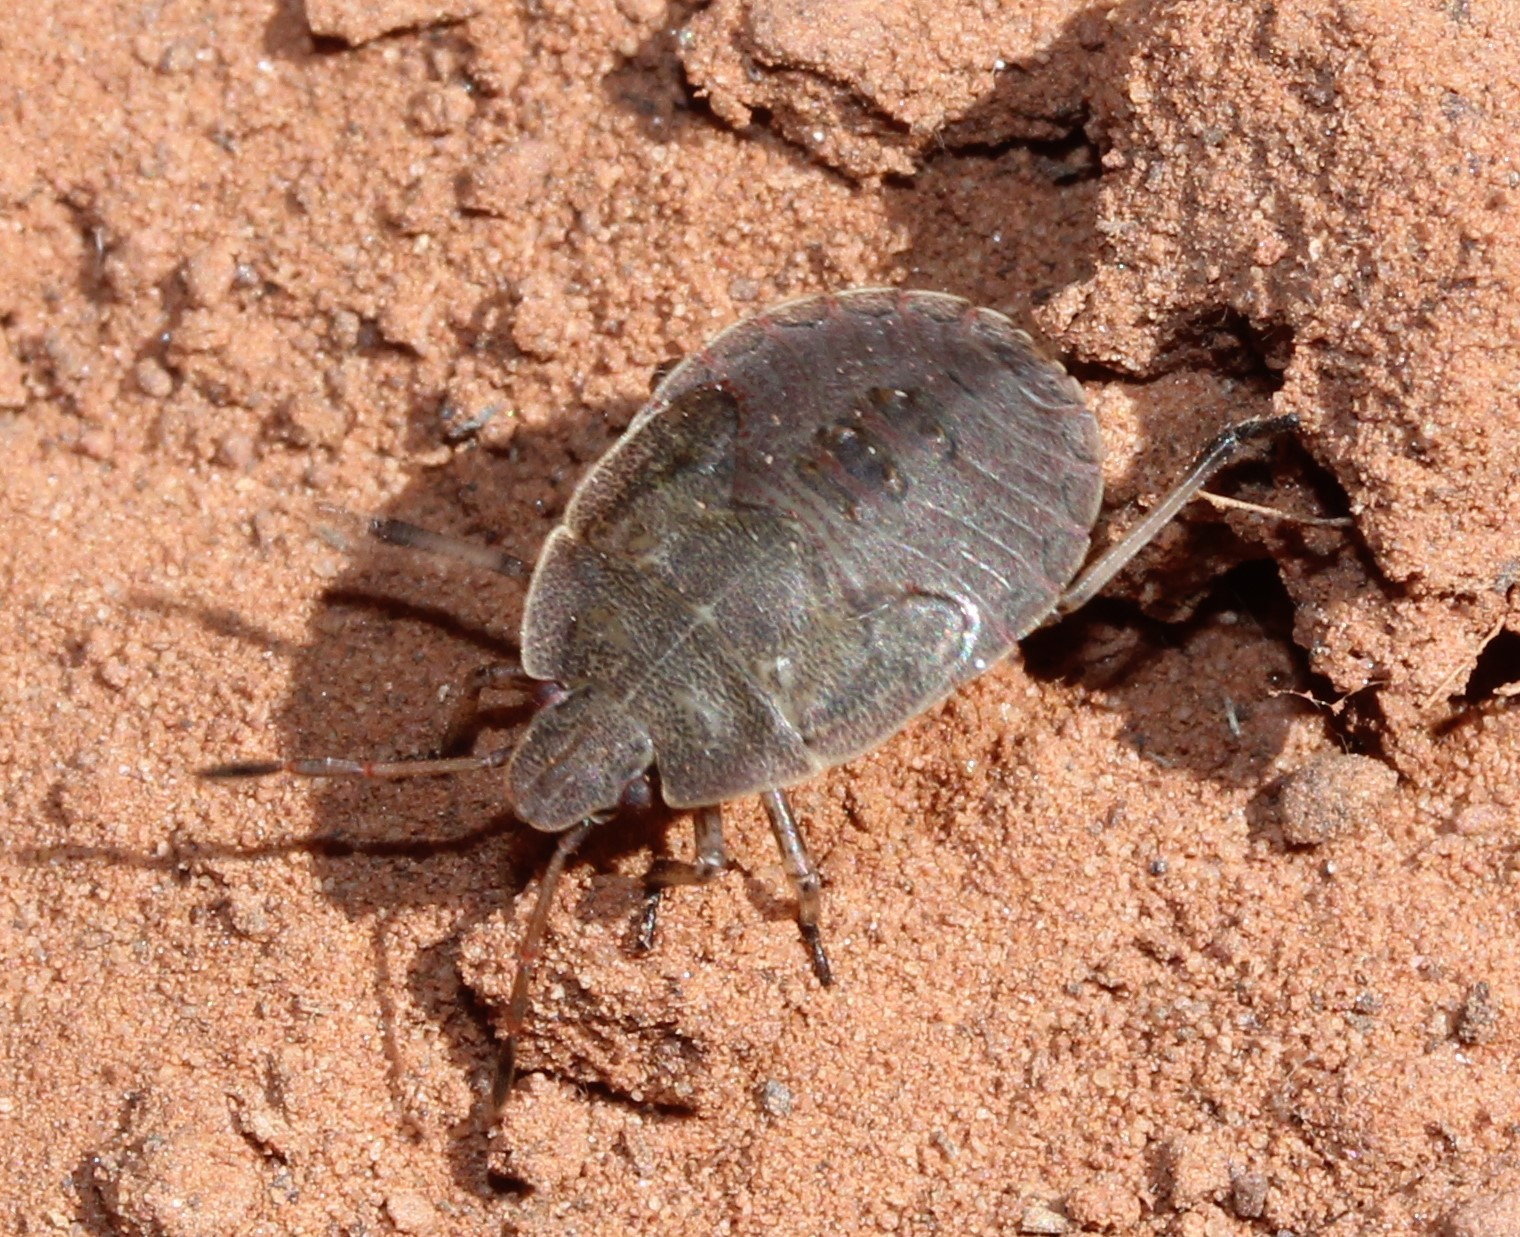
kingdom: Animalia
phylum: Arthropoda
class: Insecta
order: Hemiptera
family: Pentatomidae
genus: Menecles
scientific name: Menecles insertus
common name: Elf shoe stink bug
